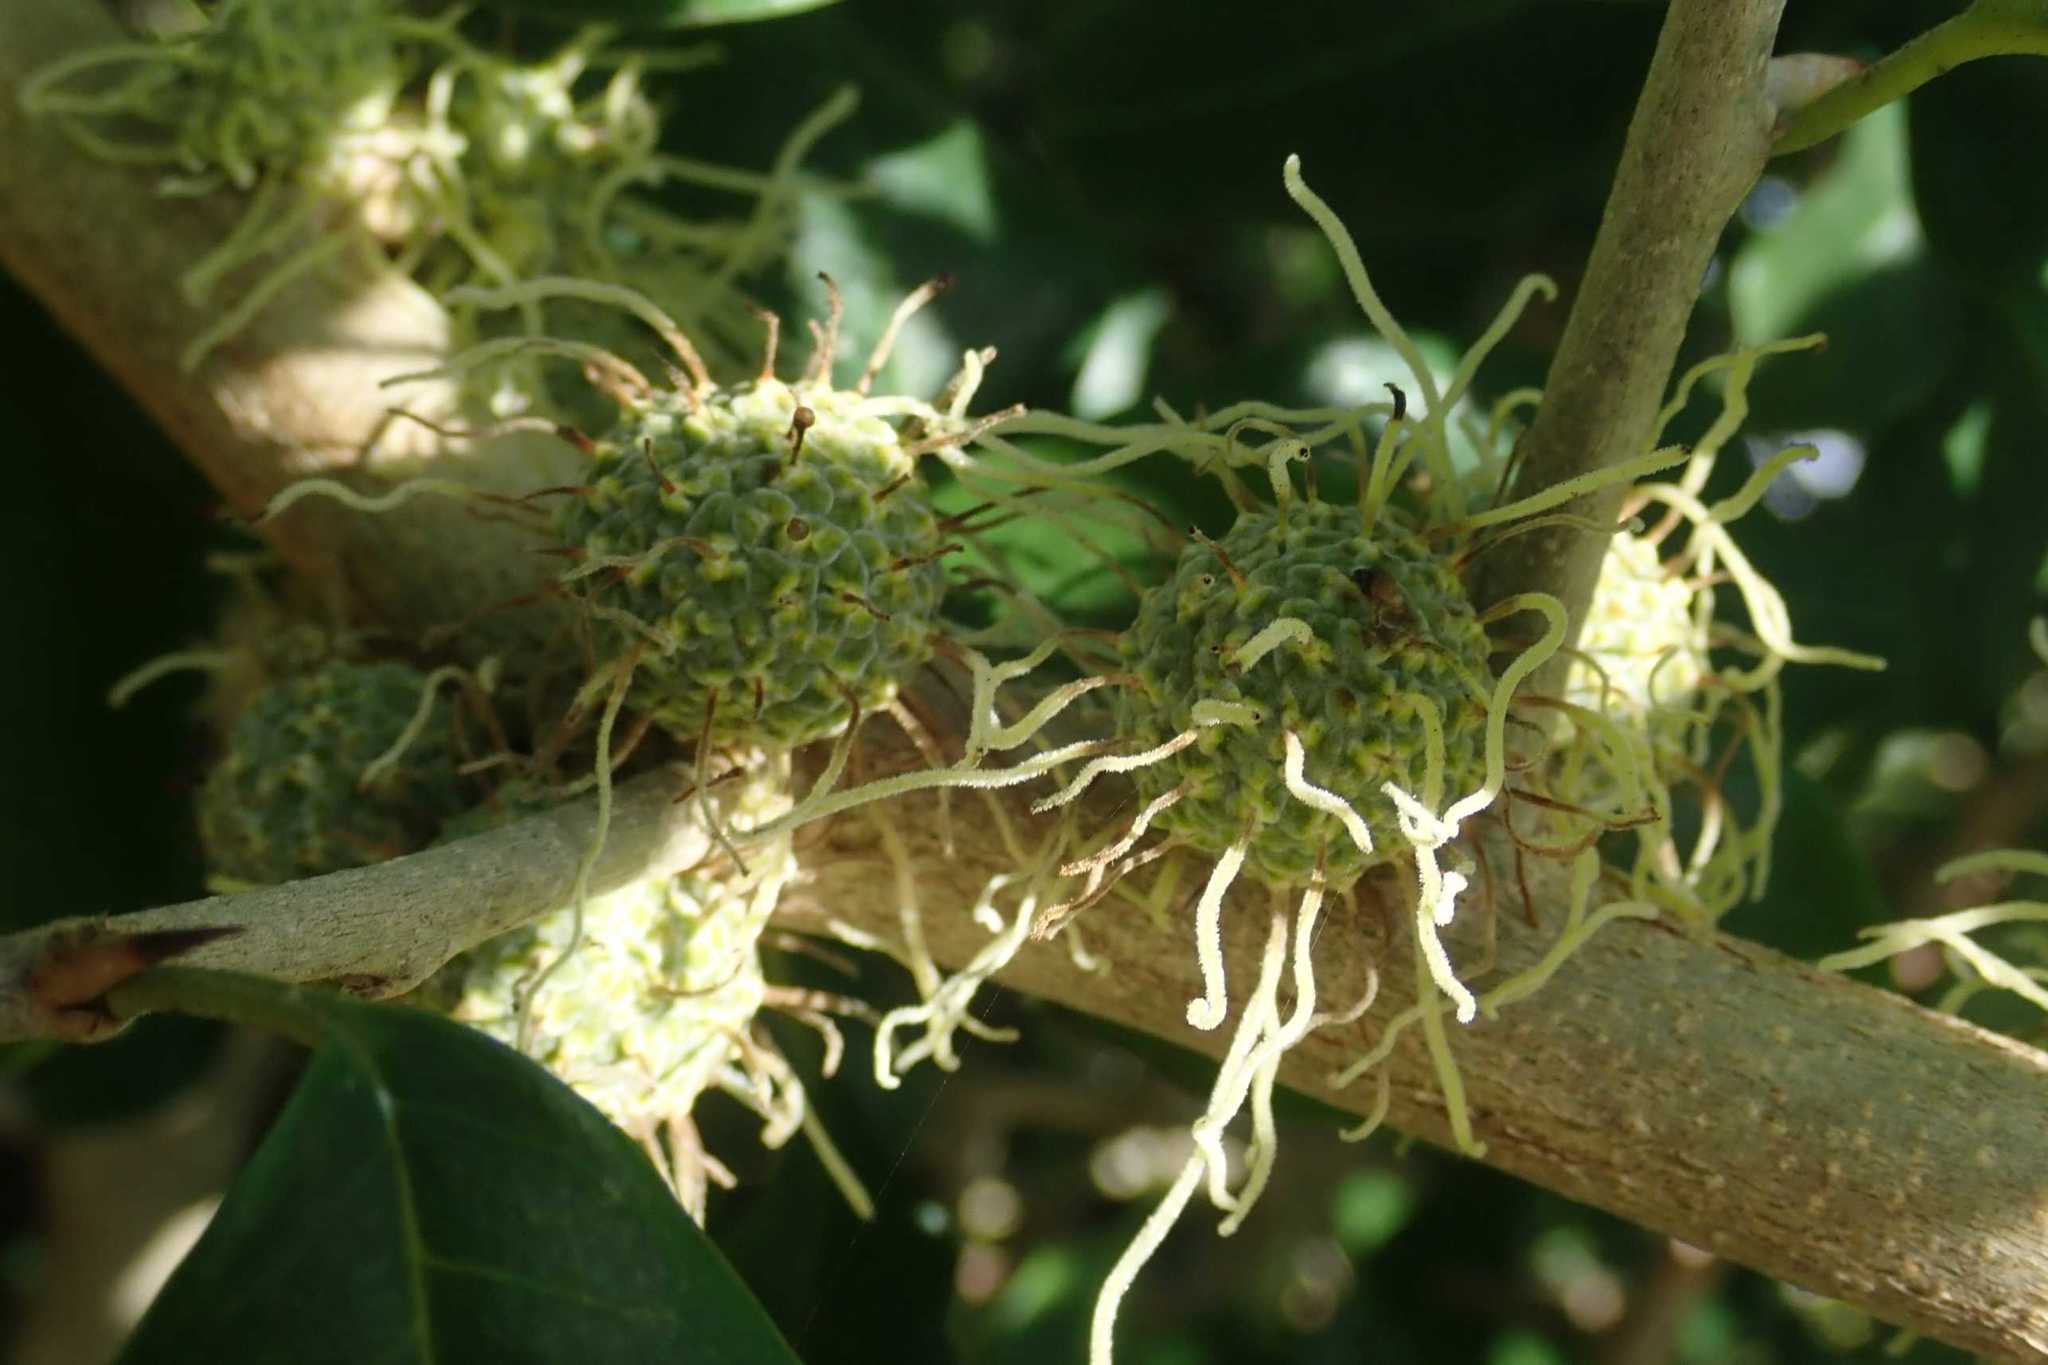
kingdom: Plantae
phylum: Tracheophyta
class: Magnoliopsida
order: Rosales
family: Moraceae
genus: Maclura
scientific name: Maclura africana
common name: African osage orange
